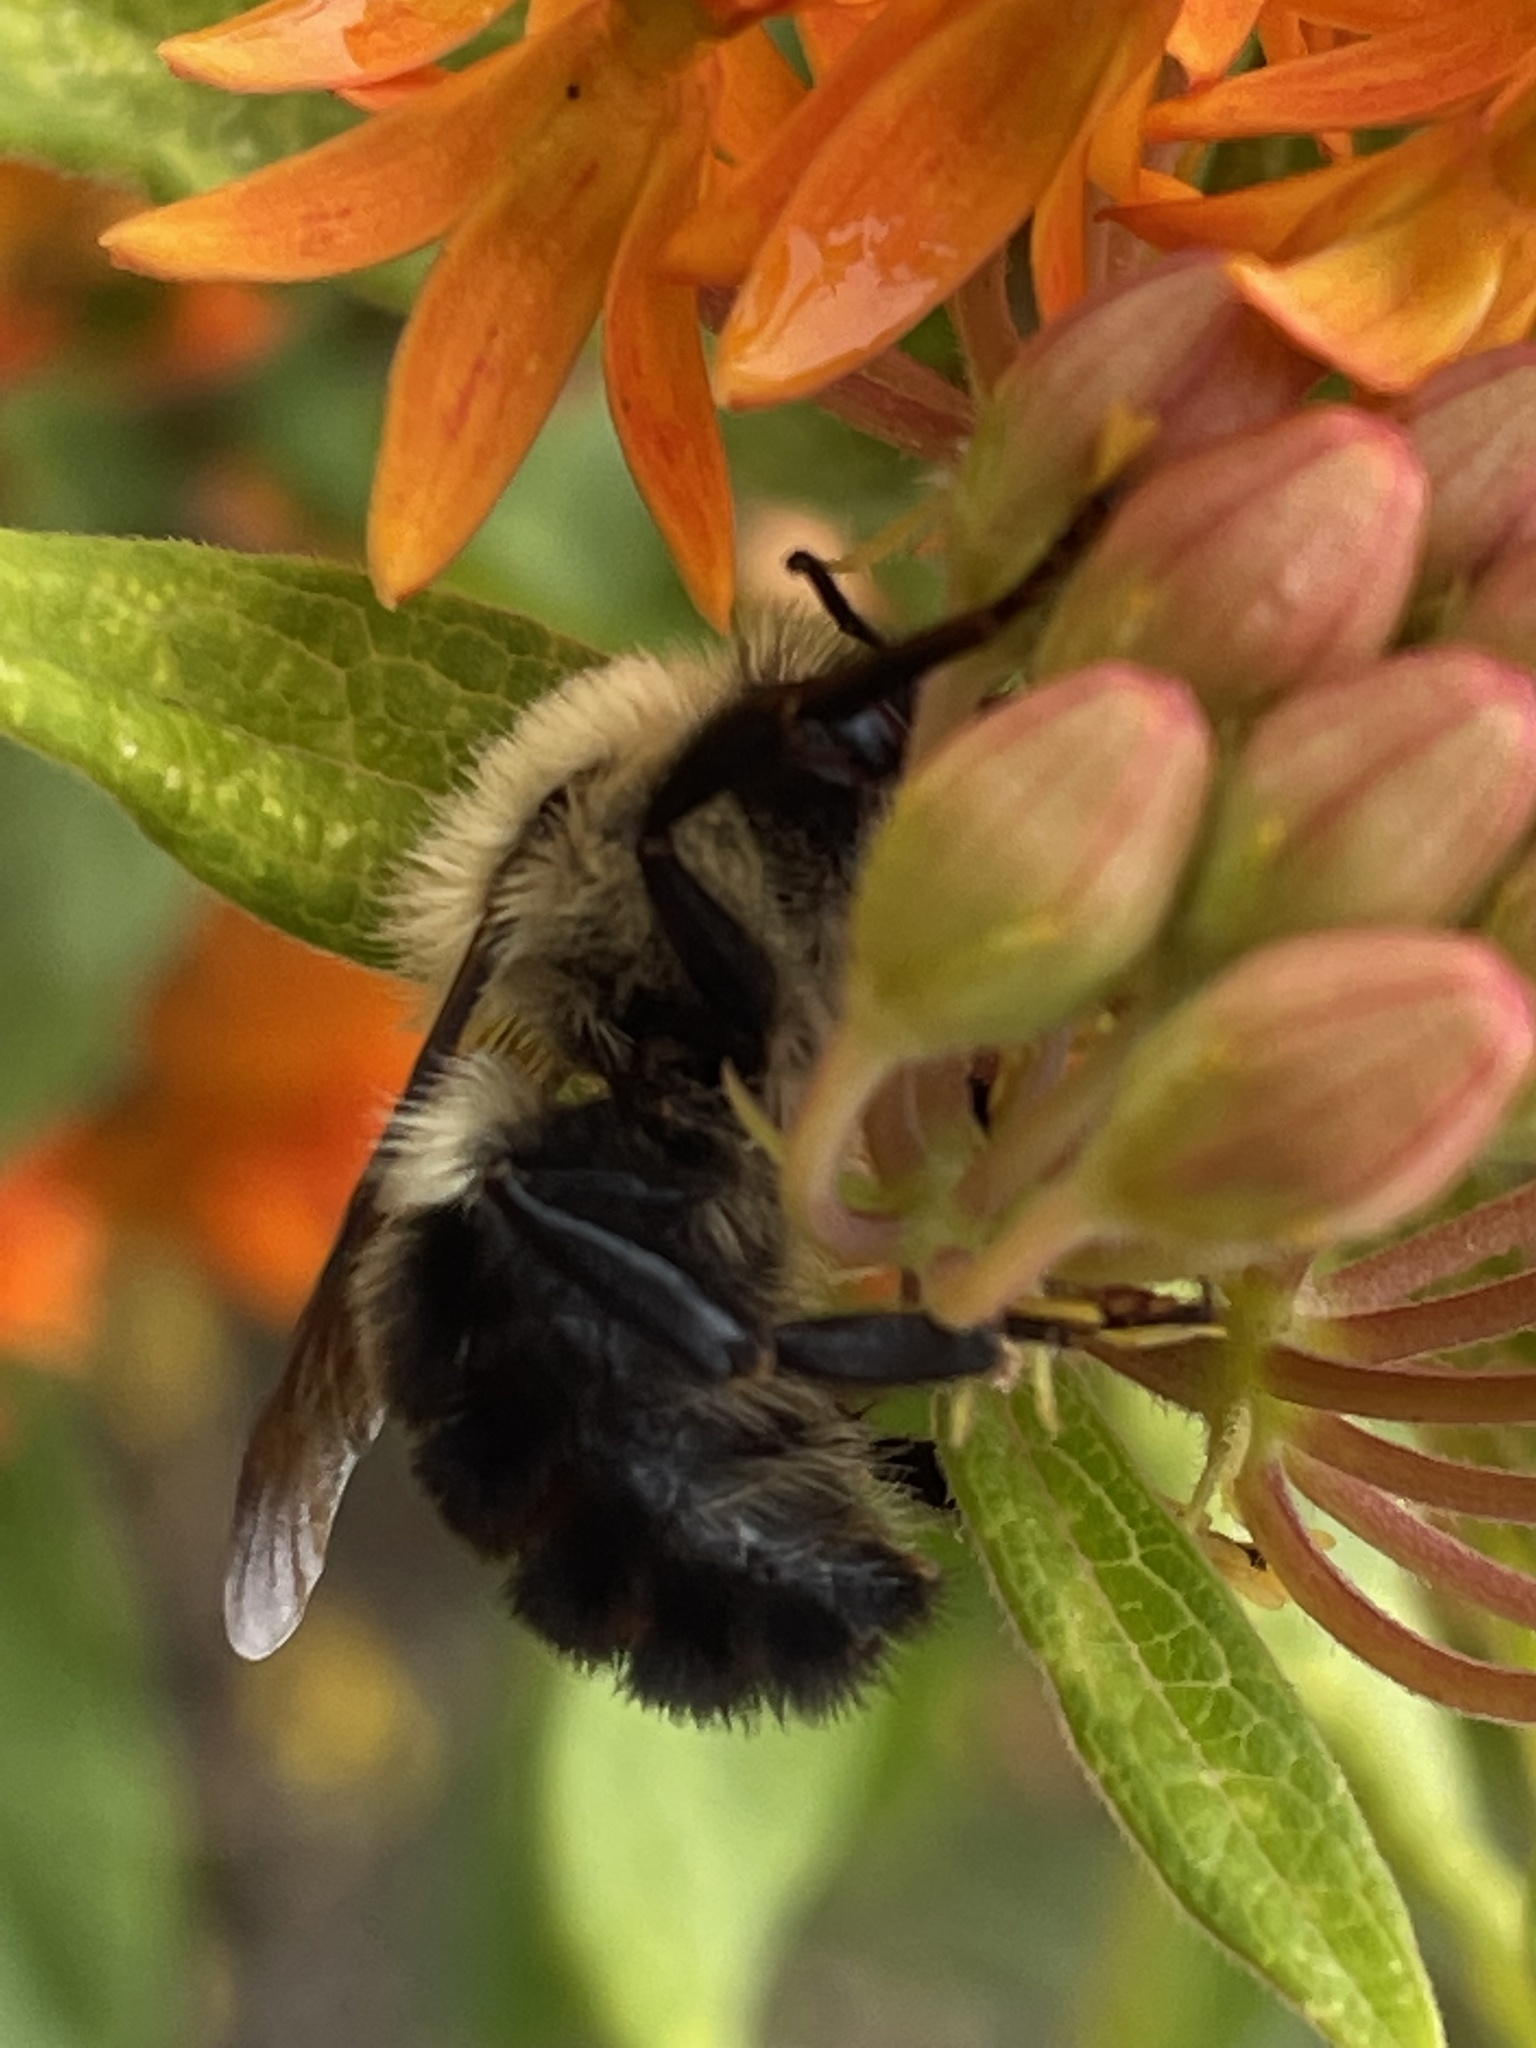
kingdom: Animalia
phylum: Arthropoda
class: Insecta
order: Hymenoptera
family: Apidae
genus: Bombus
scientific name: Bombus bimaculatus
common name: Two-spotted bumble bee
